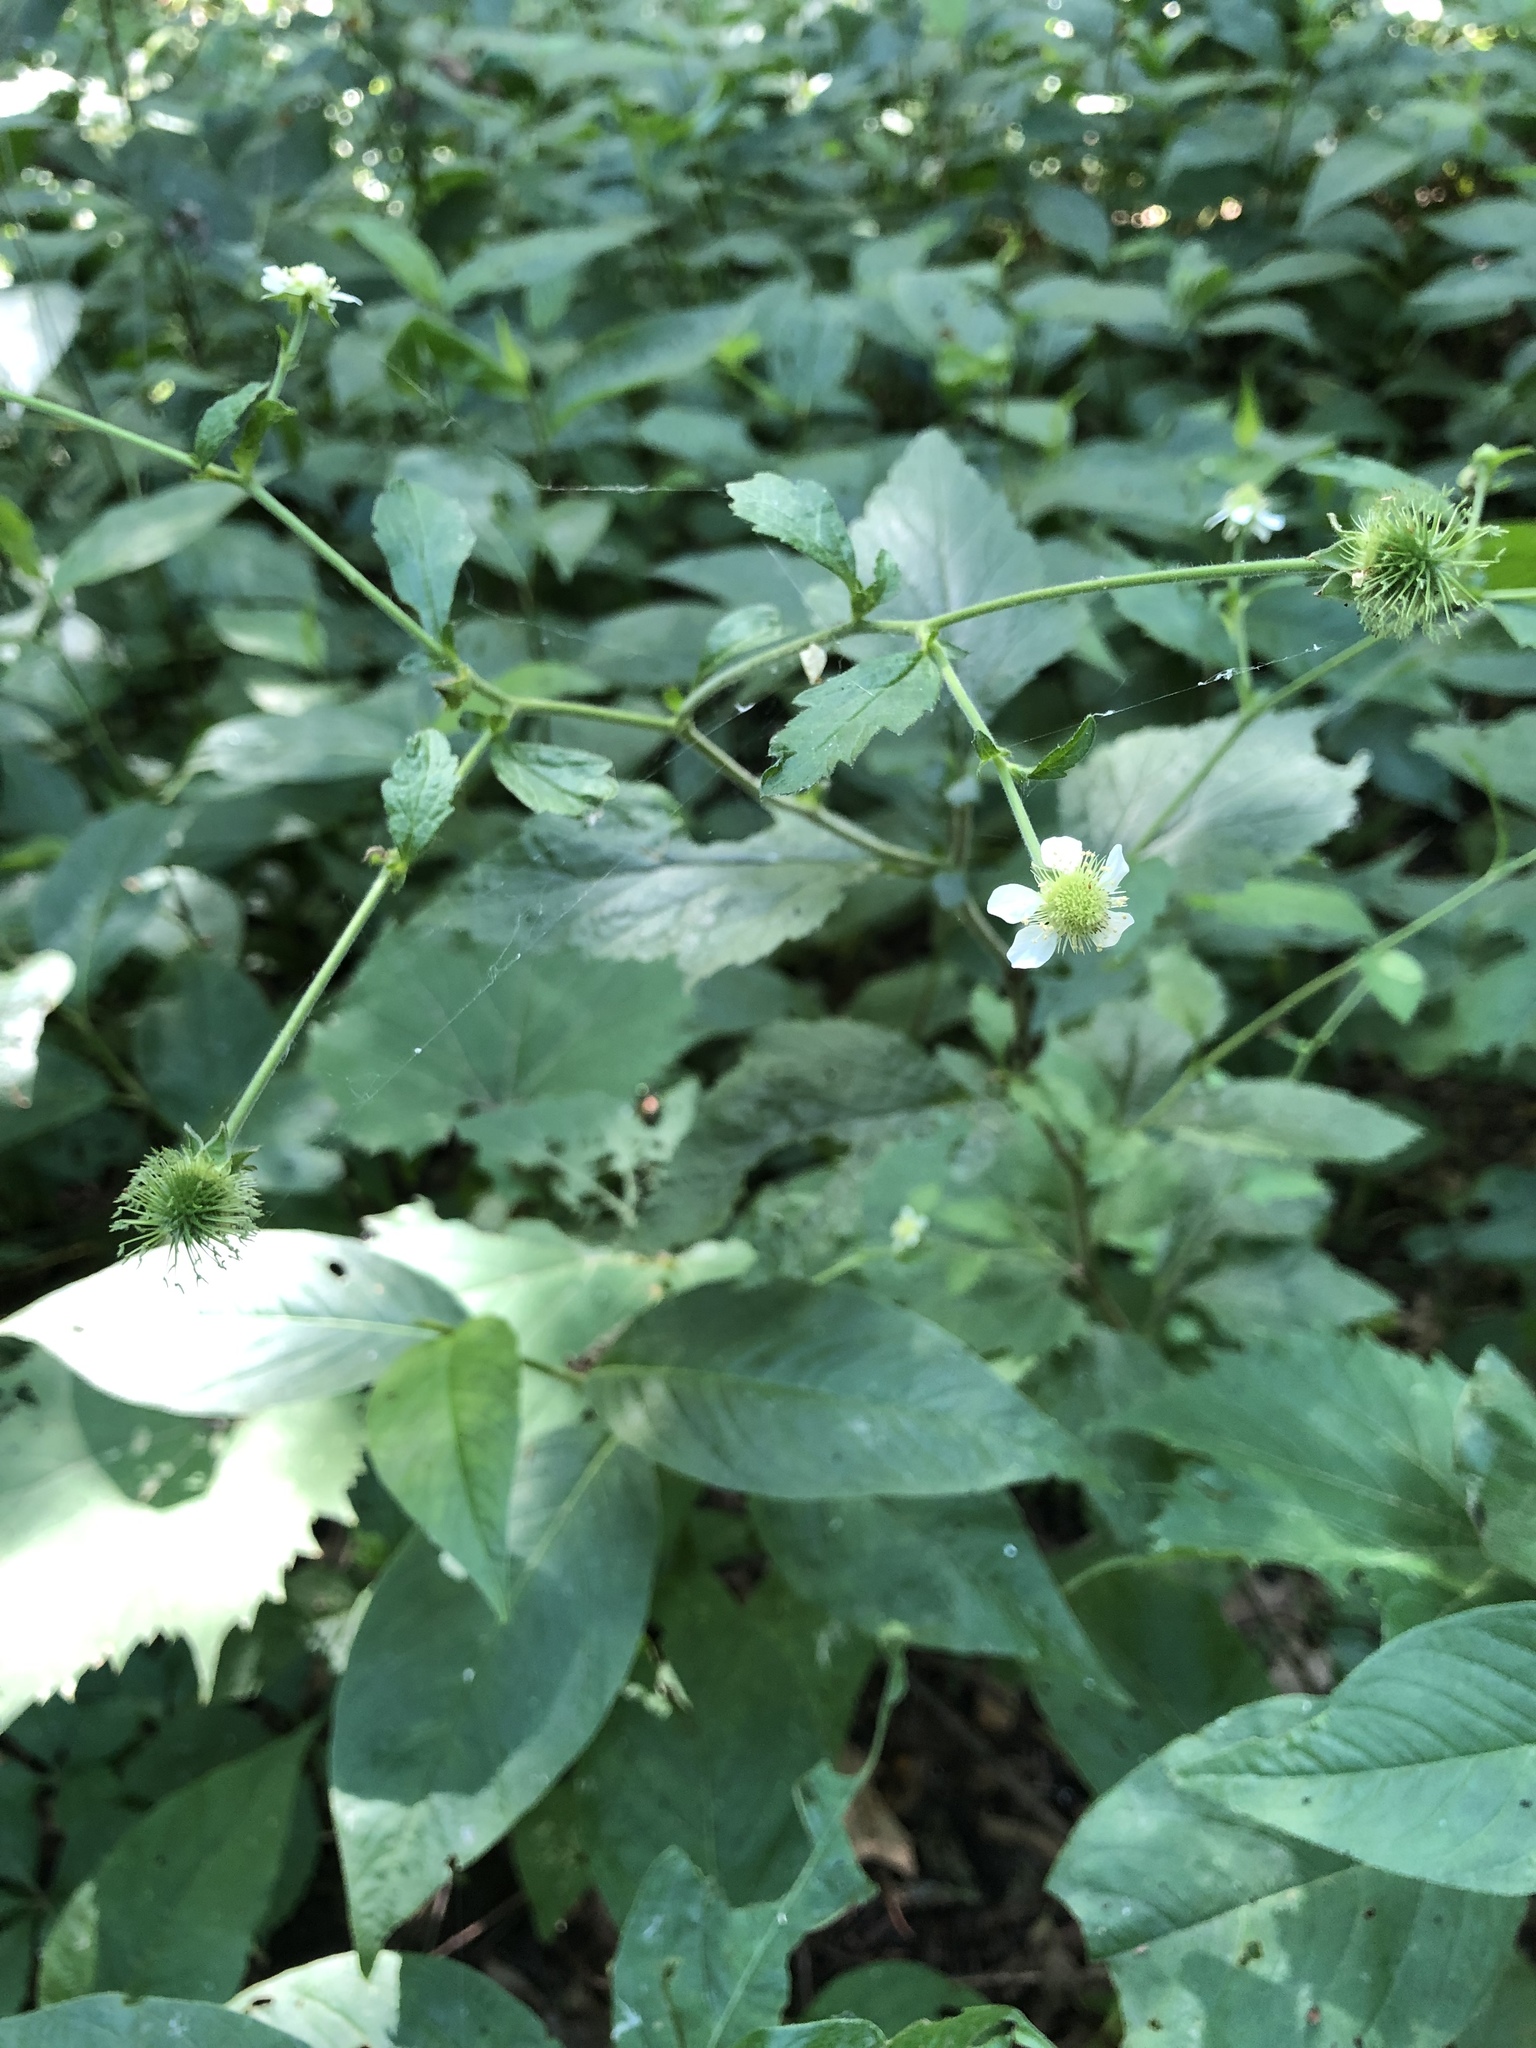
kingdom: Plantae
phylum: Tracheophyta
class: Magnoliopsida
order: Rosales
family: Rosaceae
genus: Geum
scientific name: Geum canadense
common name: White avens
